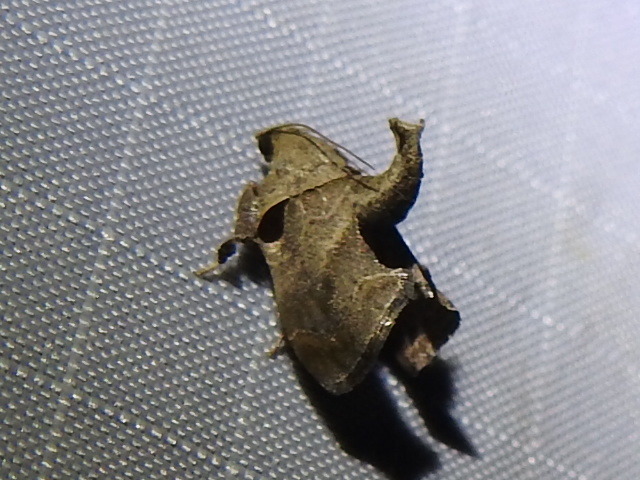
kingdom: Animalia
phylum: Arthropoda
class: Insecta
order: Lepidoptera
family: Pyralidae
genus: Tosale
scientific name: Tosale aucta
